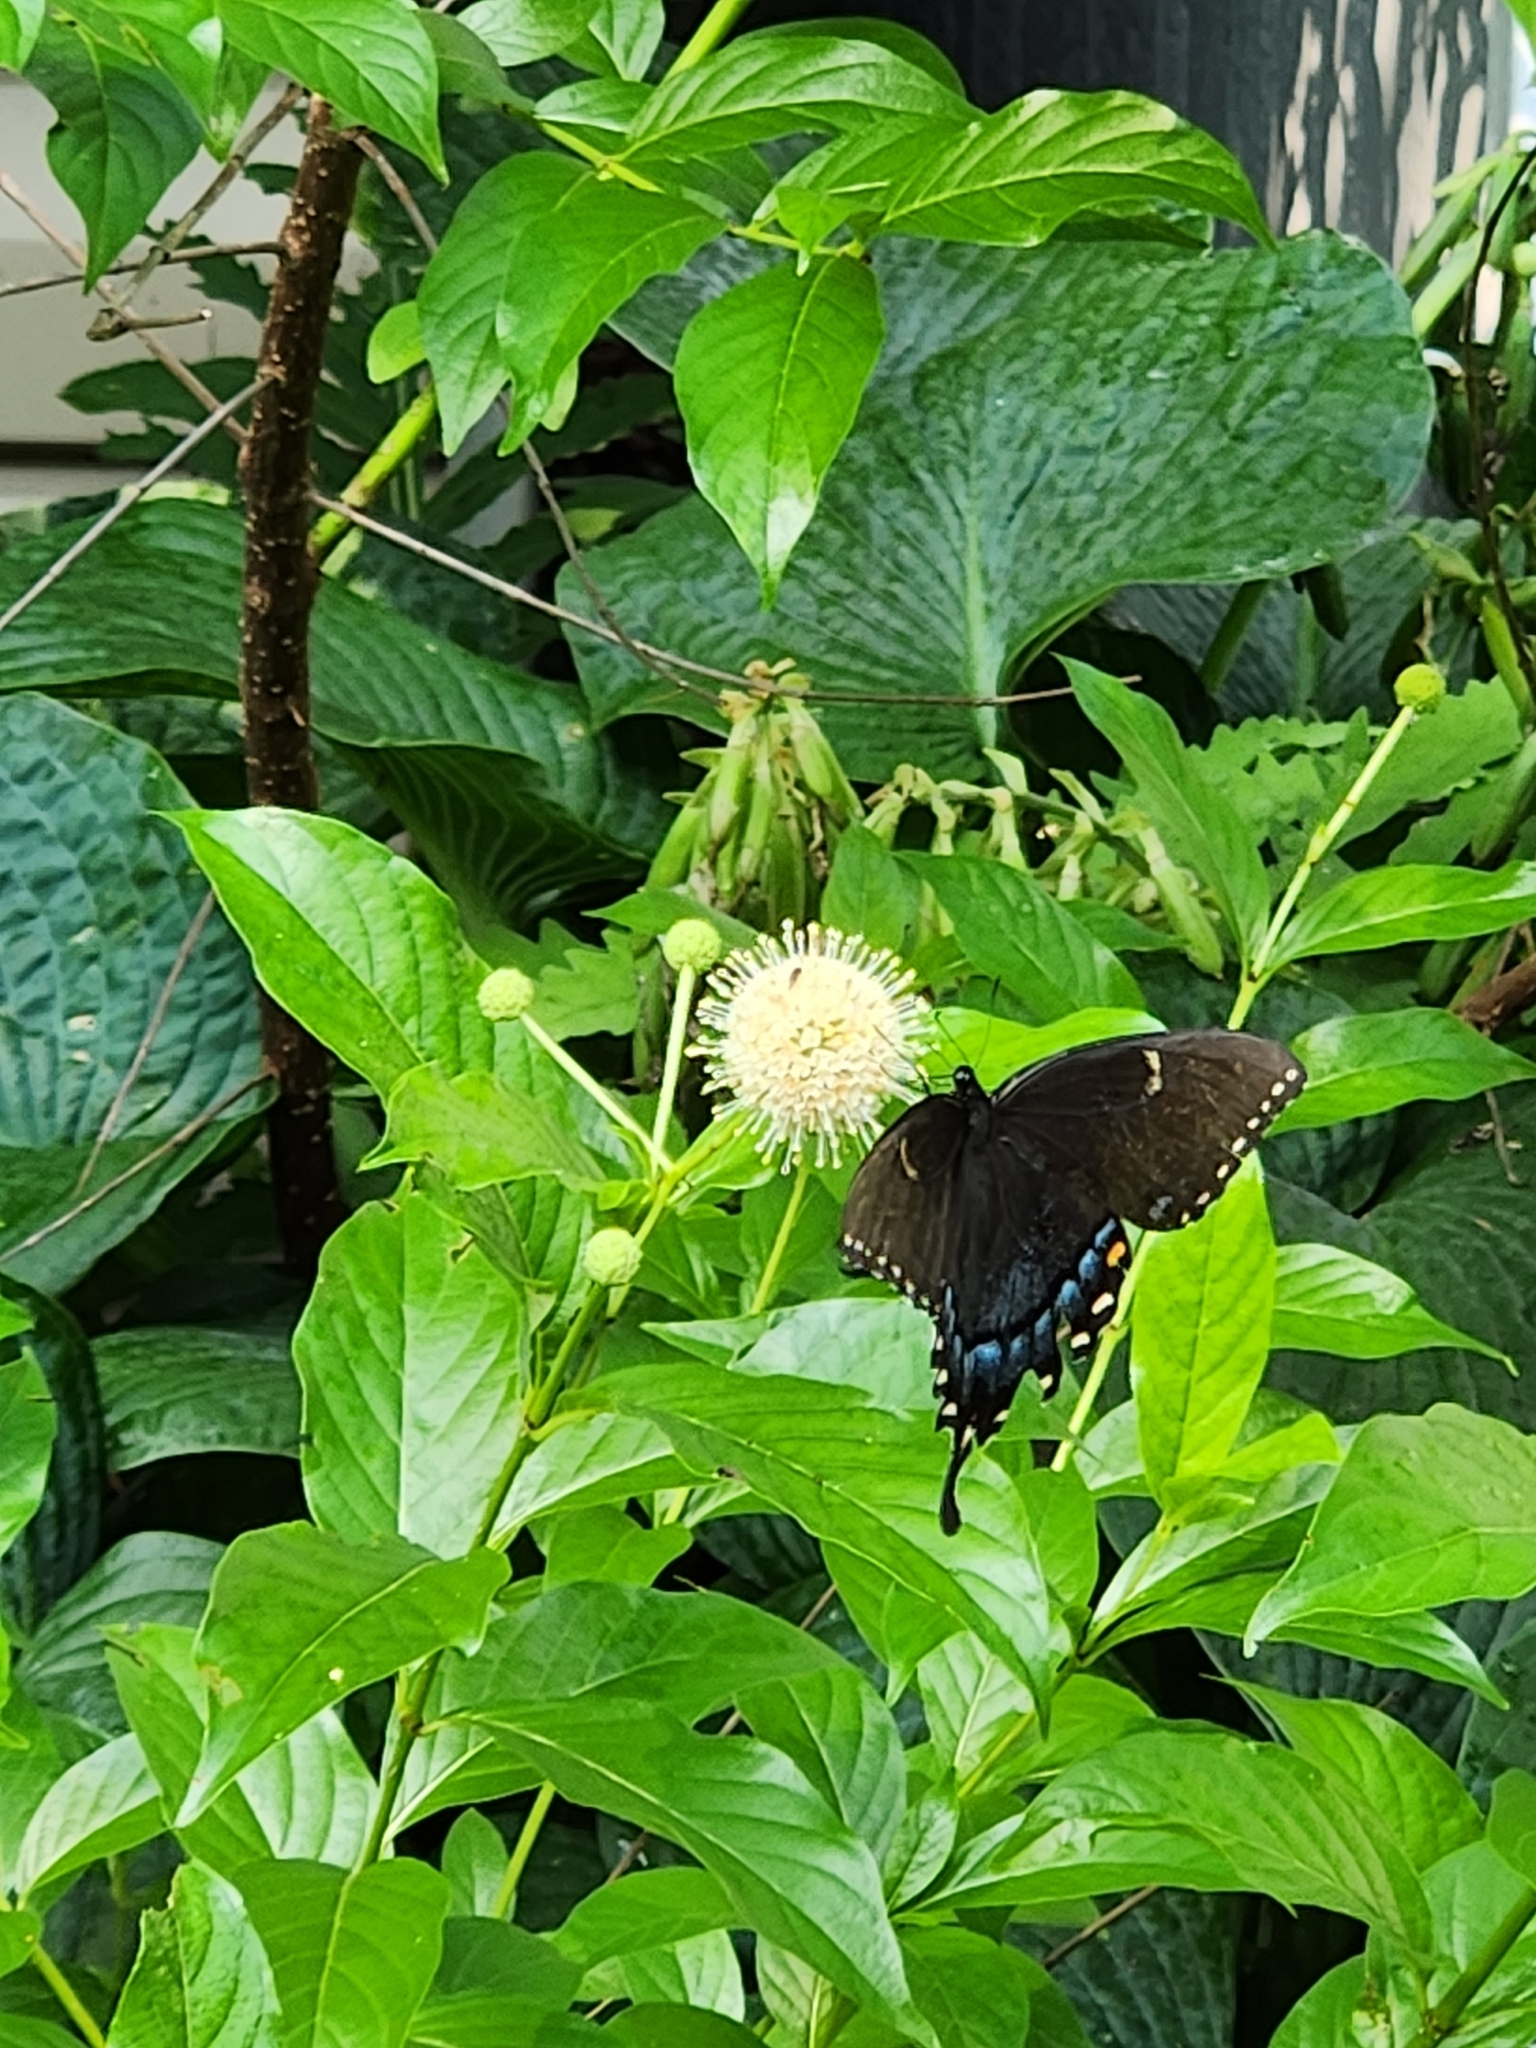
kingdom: Animalia
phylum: Arthropoda
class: Insecta
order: Lepidoptera
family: Papilionidae
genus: Papilio
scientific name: Papilio glaucus
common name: Tiger swallowtail
